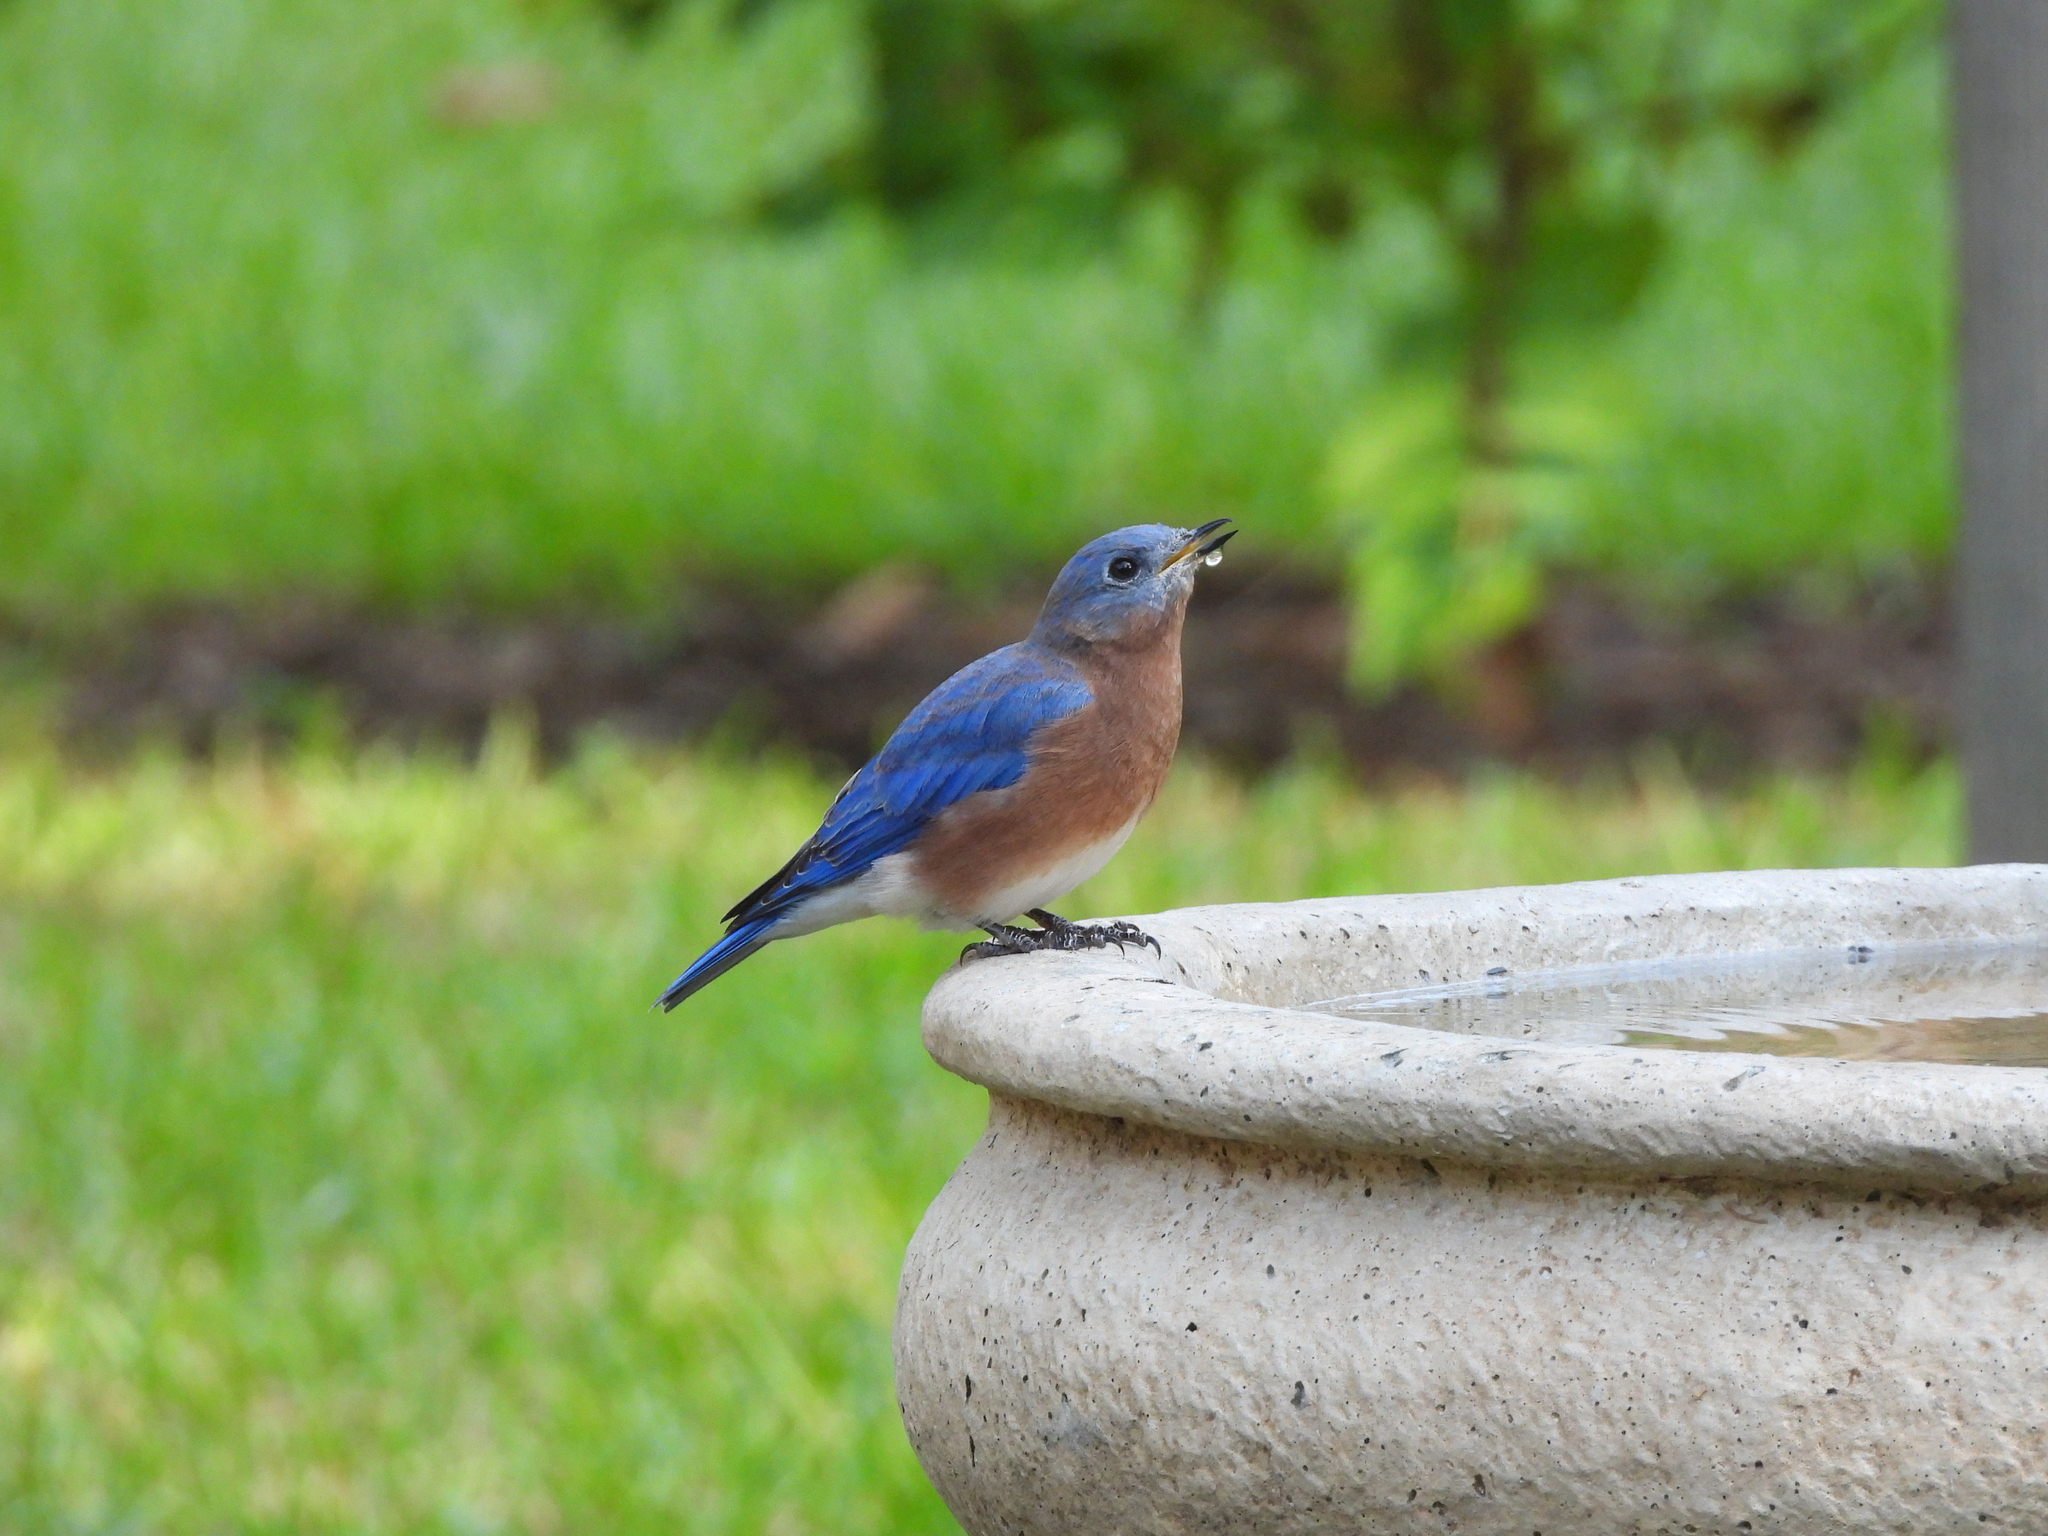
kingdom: Animalia
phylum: Chordata
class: Aves
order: Passeriformes
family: Turdidae
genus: Sialia
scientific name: Sialia sialis
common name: Eastern bluebird
